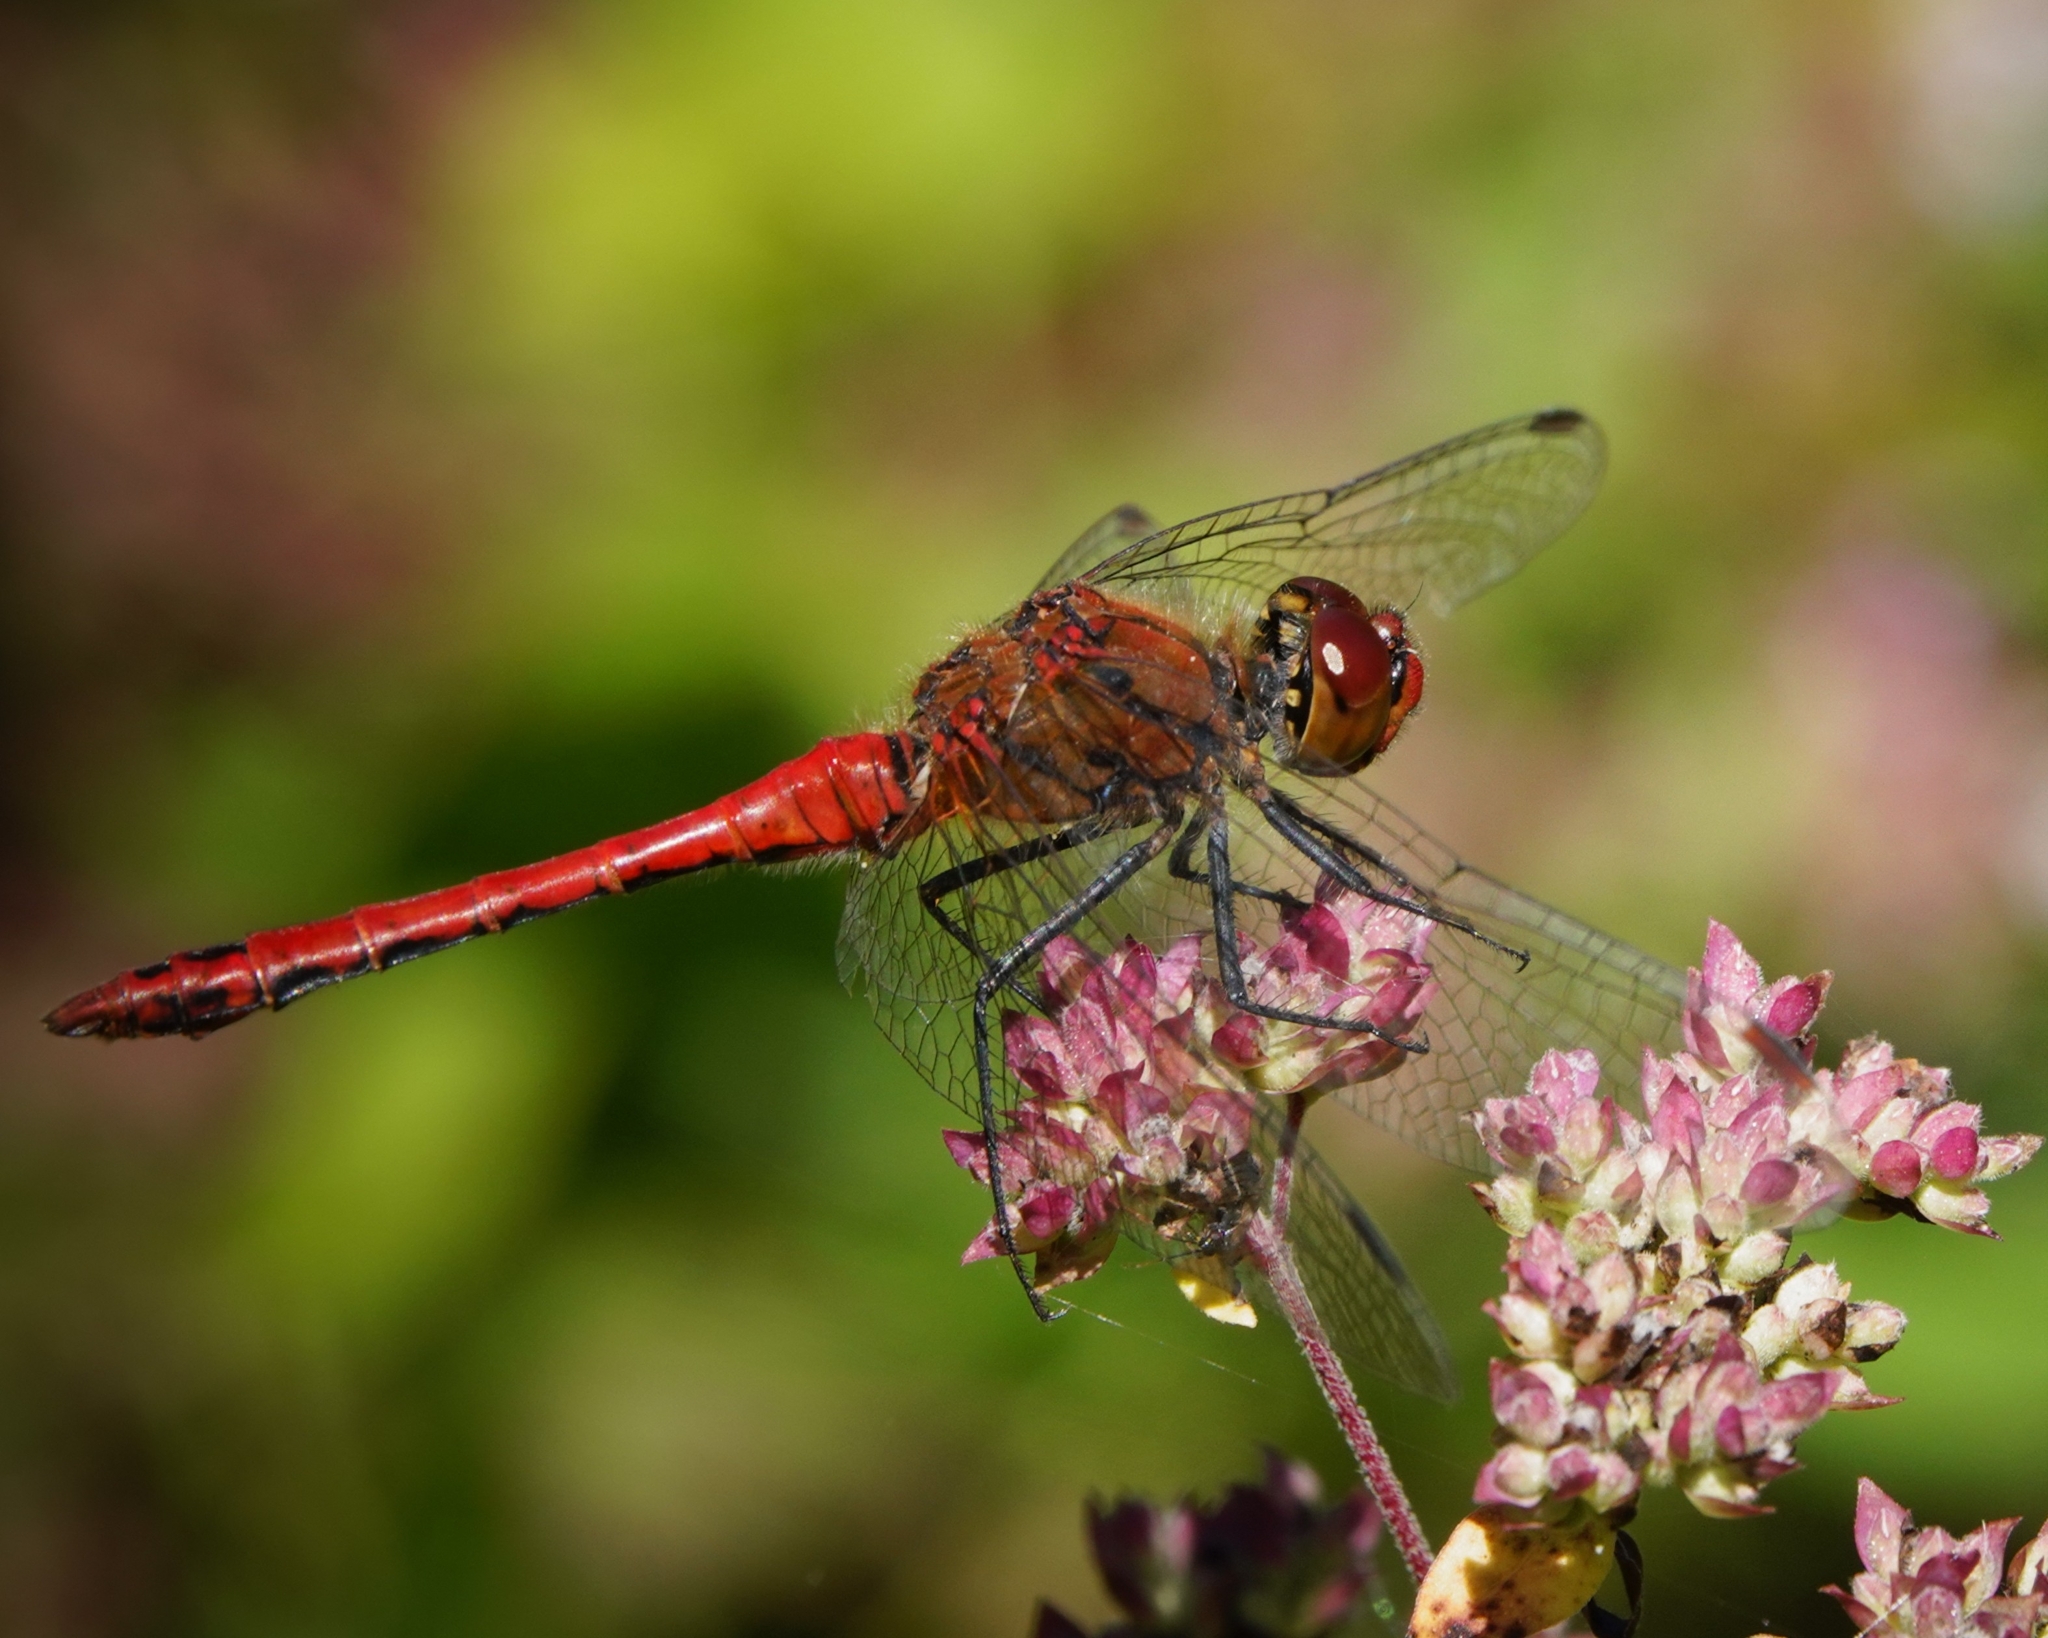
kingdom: Animalia
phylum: Arthropoda
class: Insecta
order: Odonata
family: Libellulidae
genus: Sympetrum
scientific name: Sympetrum sanguineum
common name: Ruddy darter
